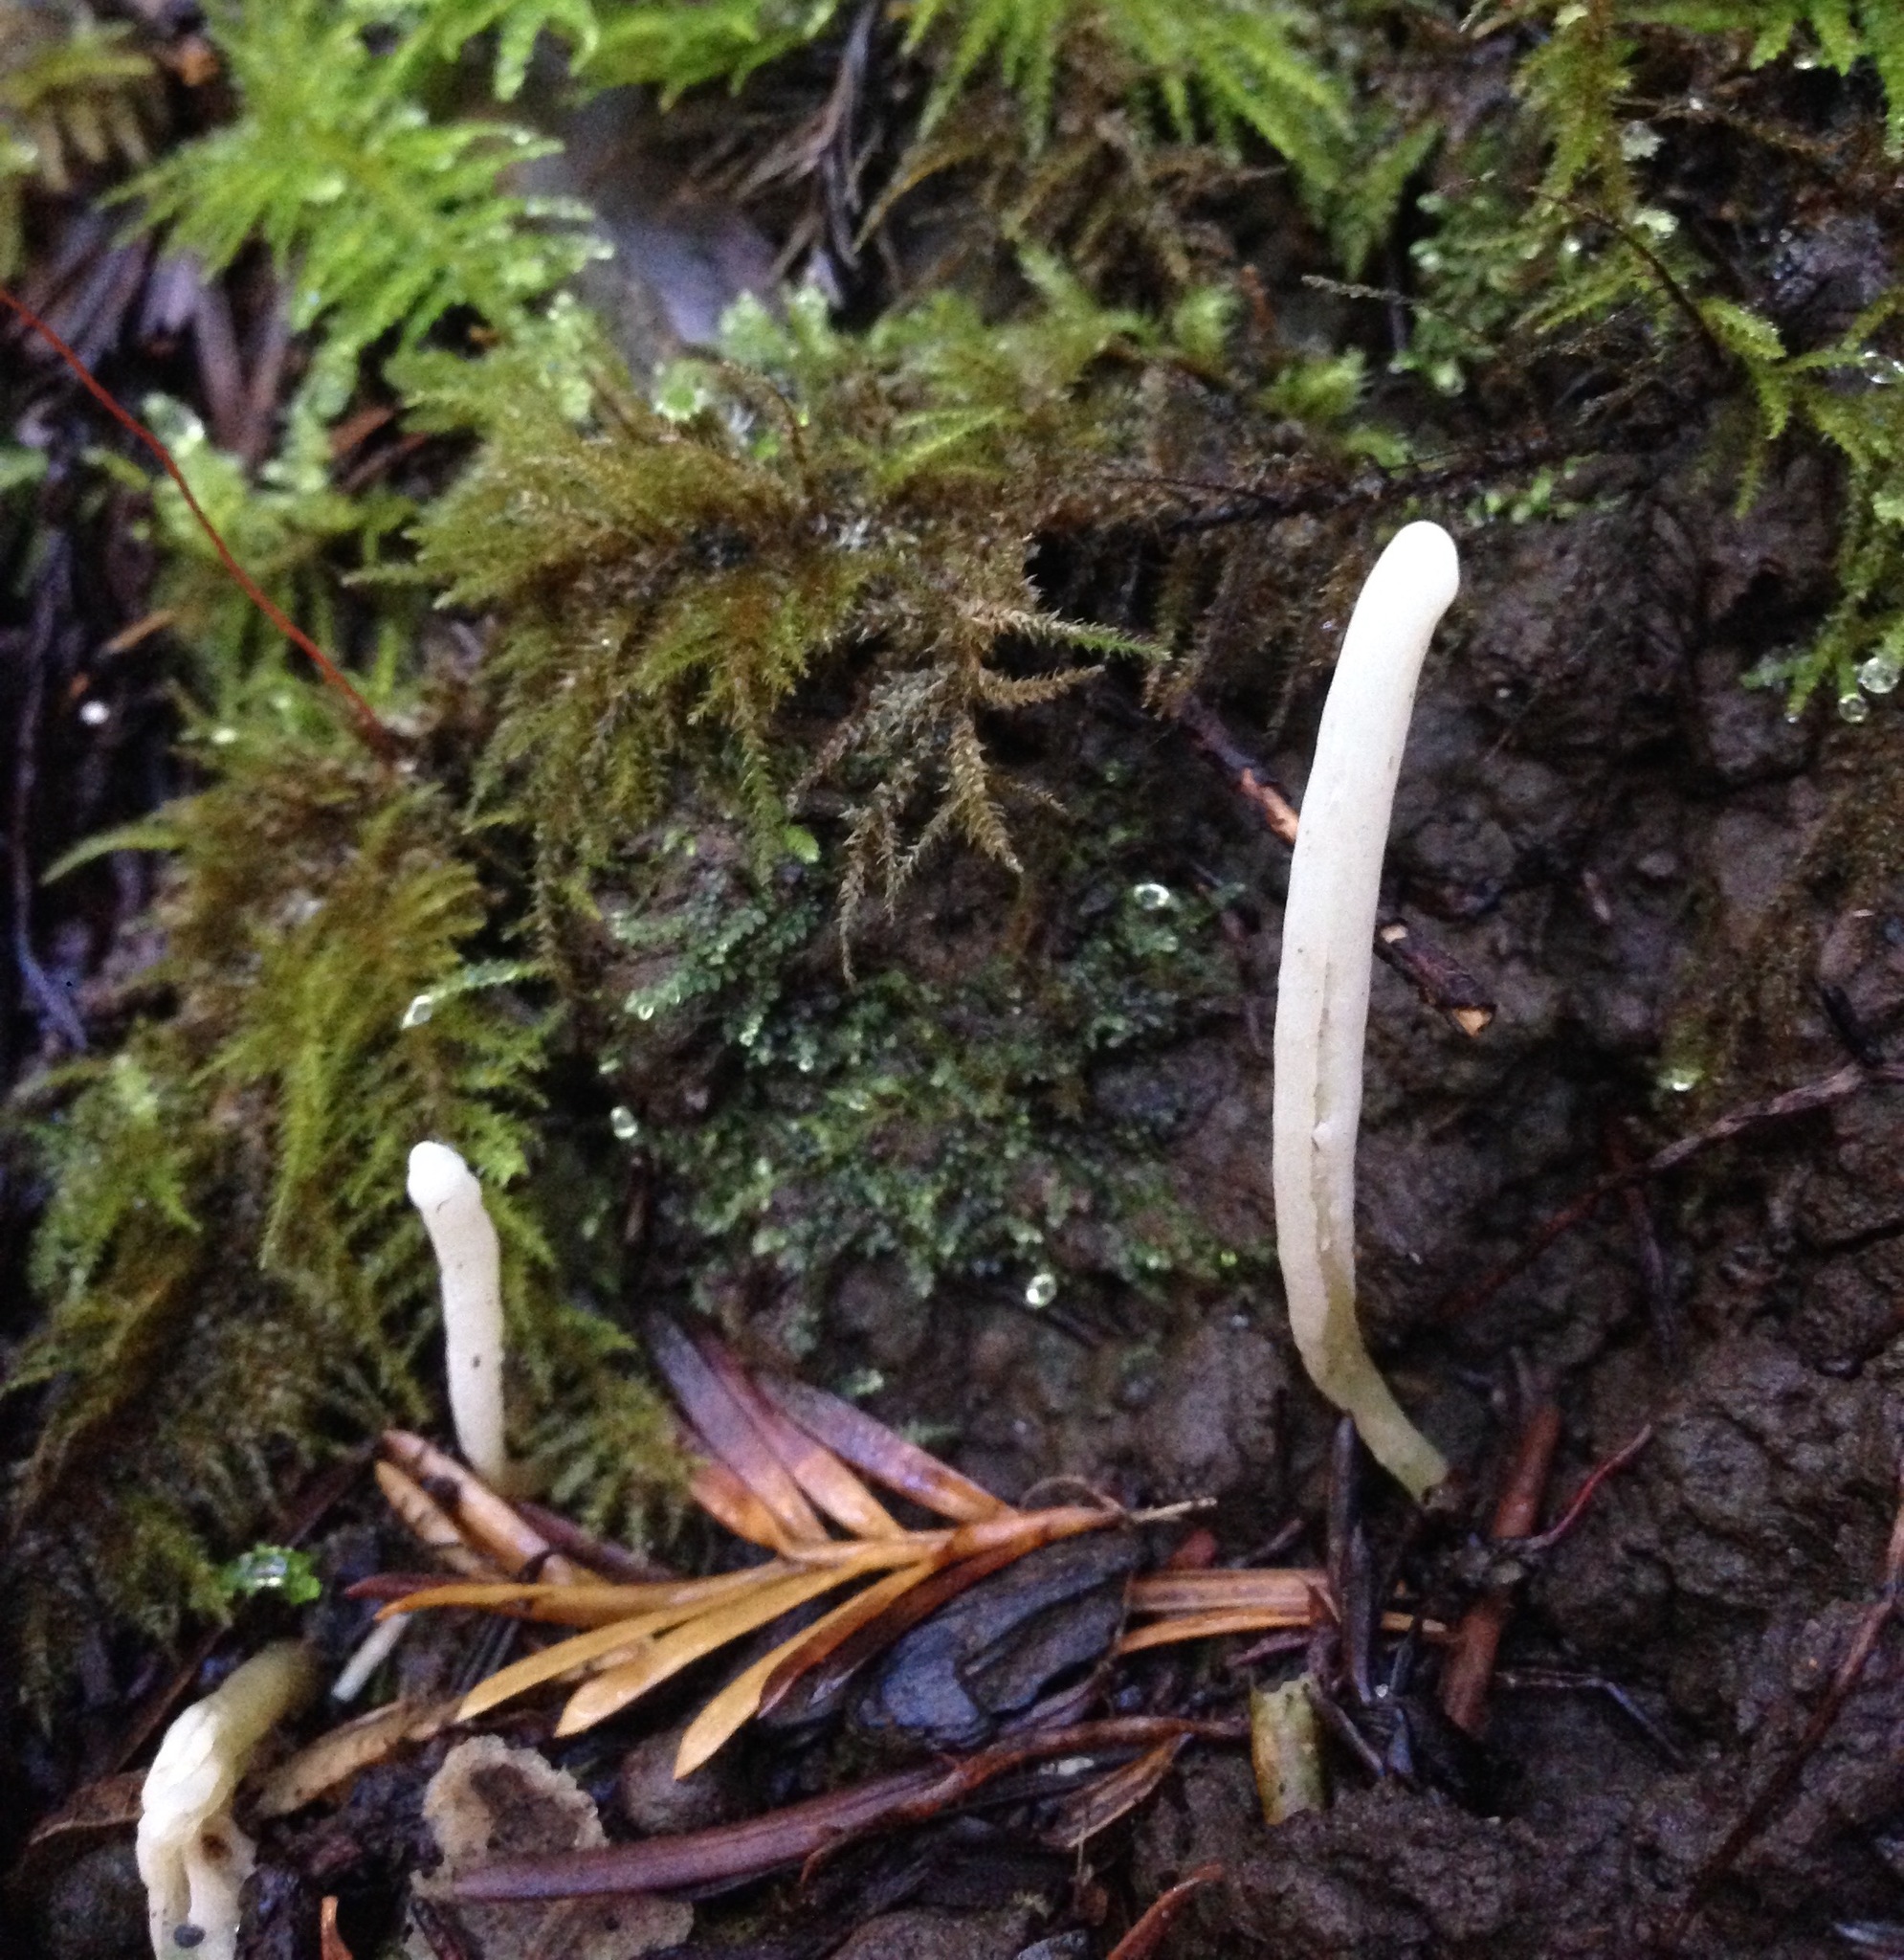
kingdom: Fungi
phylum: Basidiomycota
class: Agaricomycetes
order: Agaricales
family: Clavariaceae
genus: Clavaria
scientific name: Clavaria falcata
